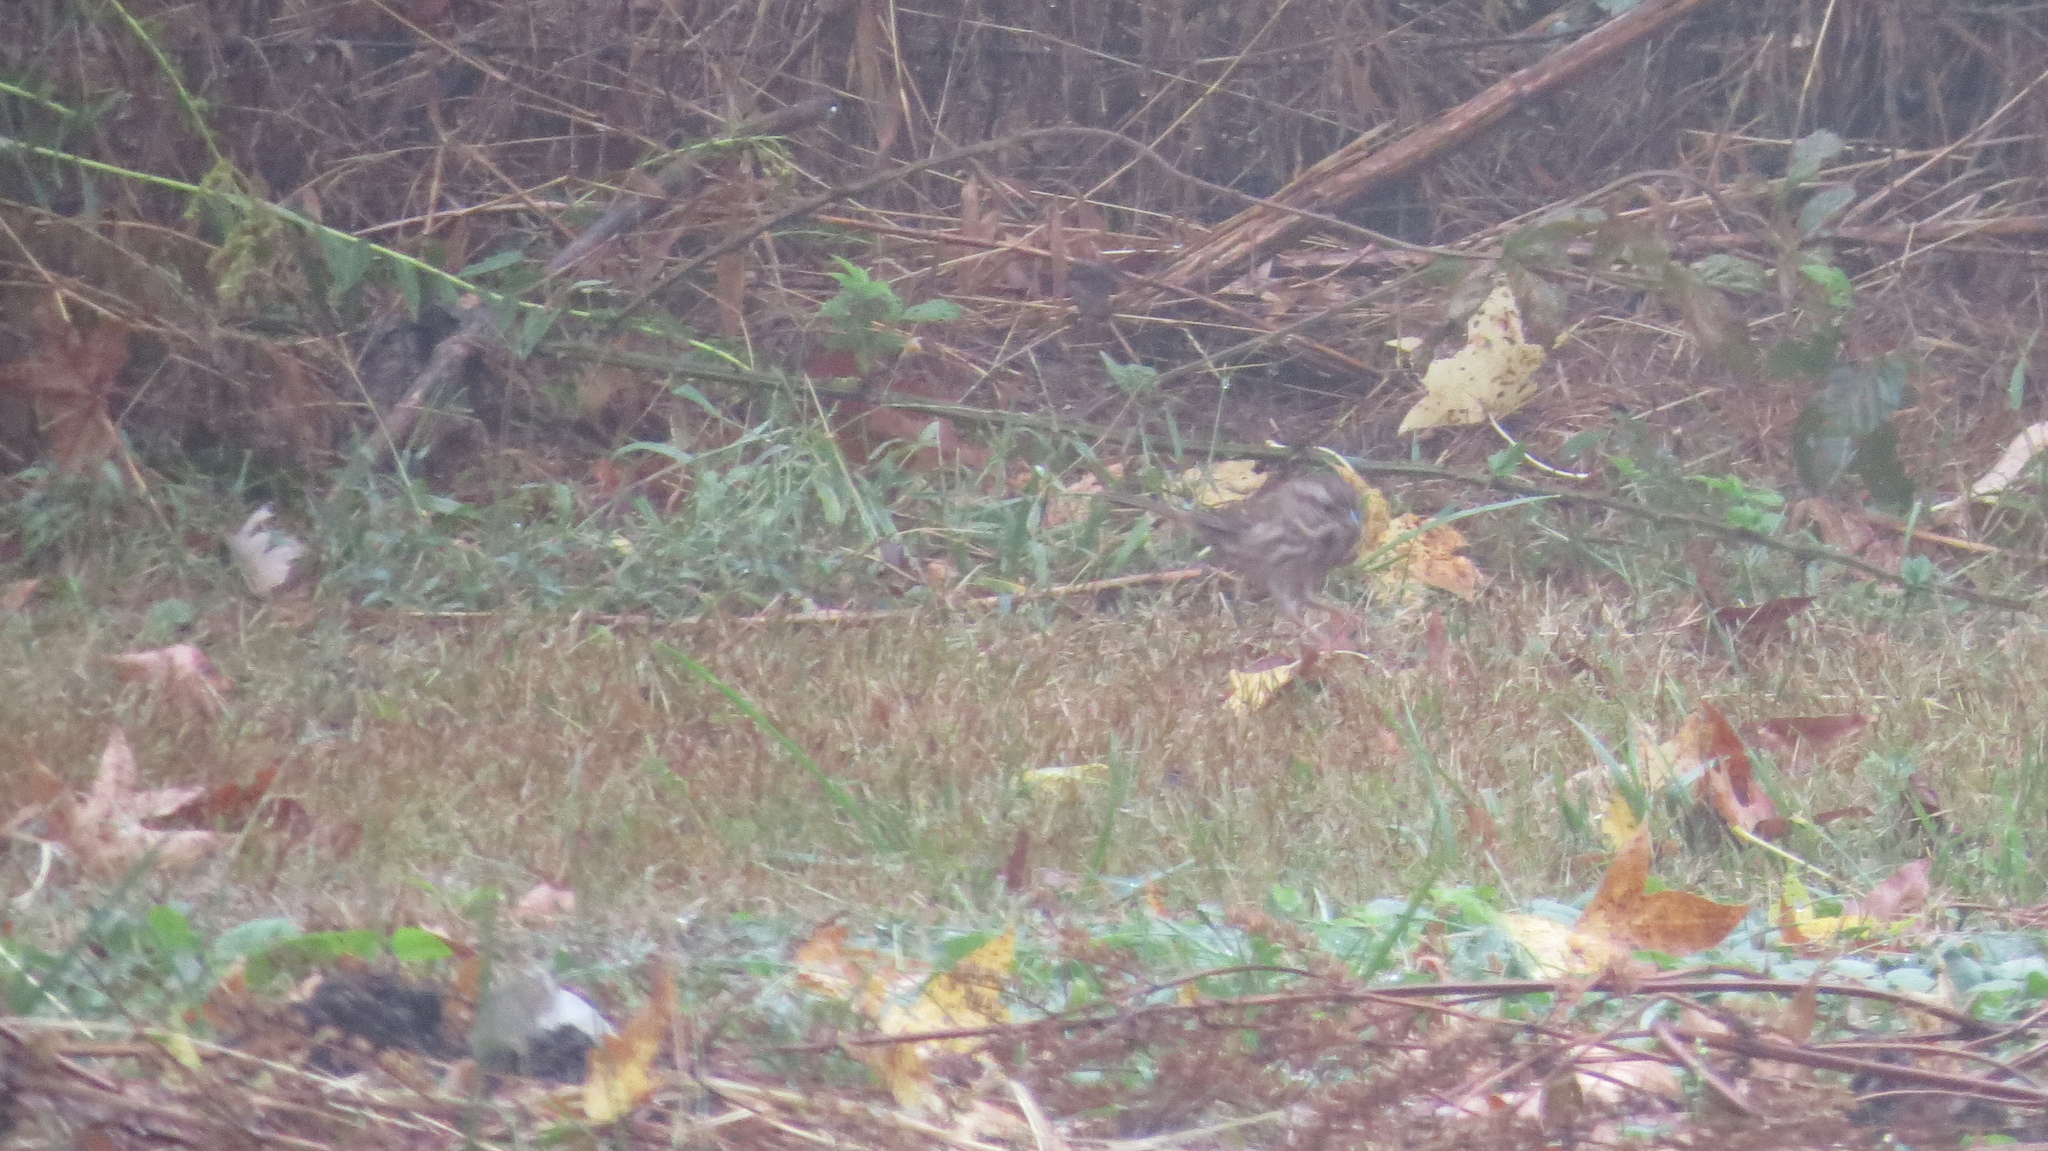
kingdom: Animalia
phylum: Chordata
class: Aves
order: Passeriformes
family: Passerellidae
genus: Melospiza
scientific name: Melospiza melodia
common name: Song sparrow
